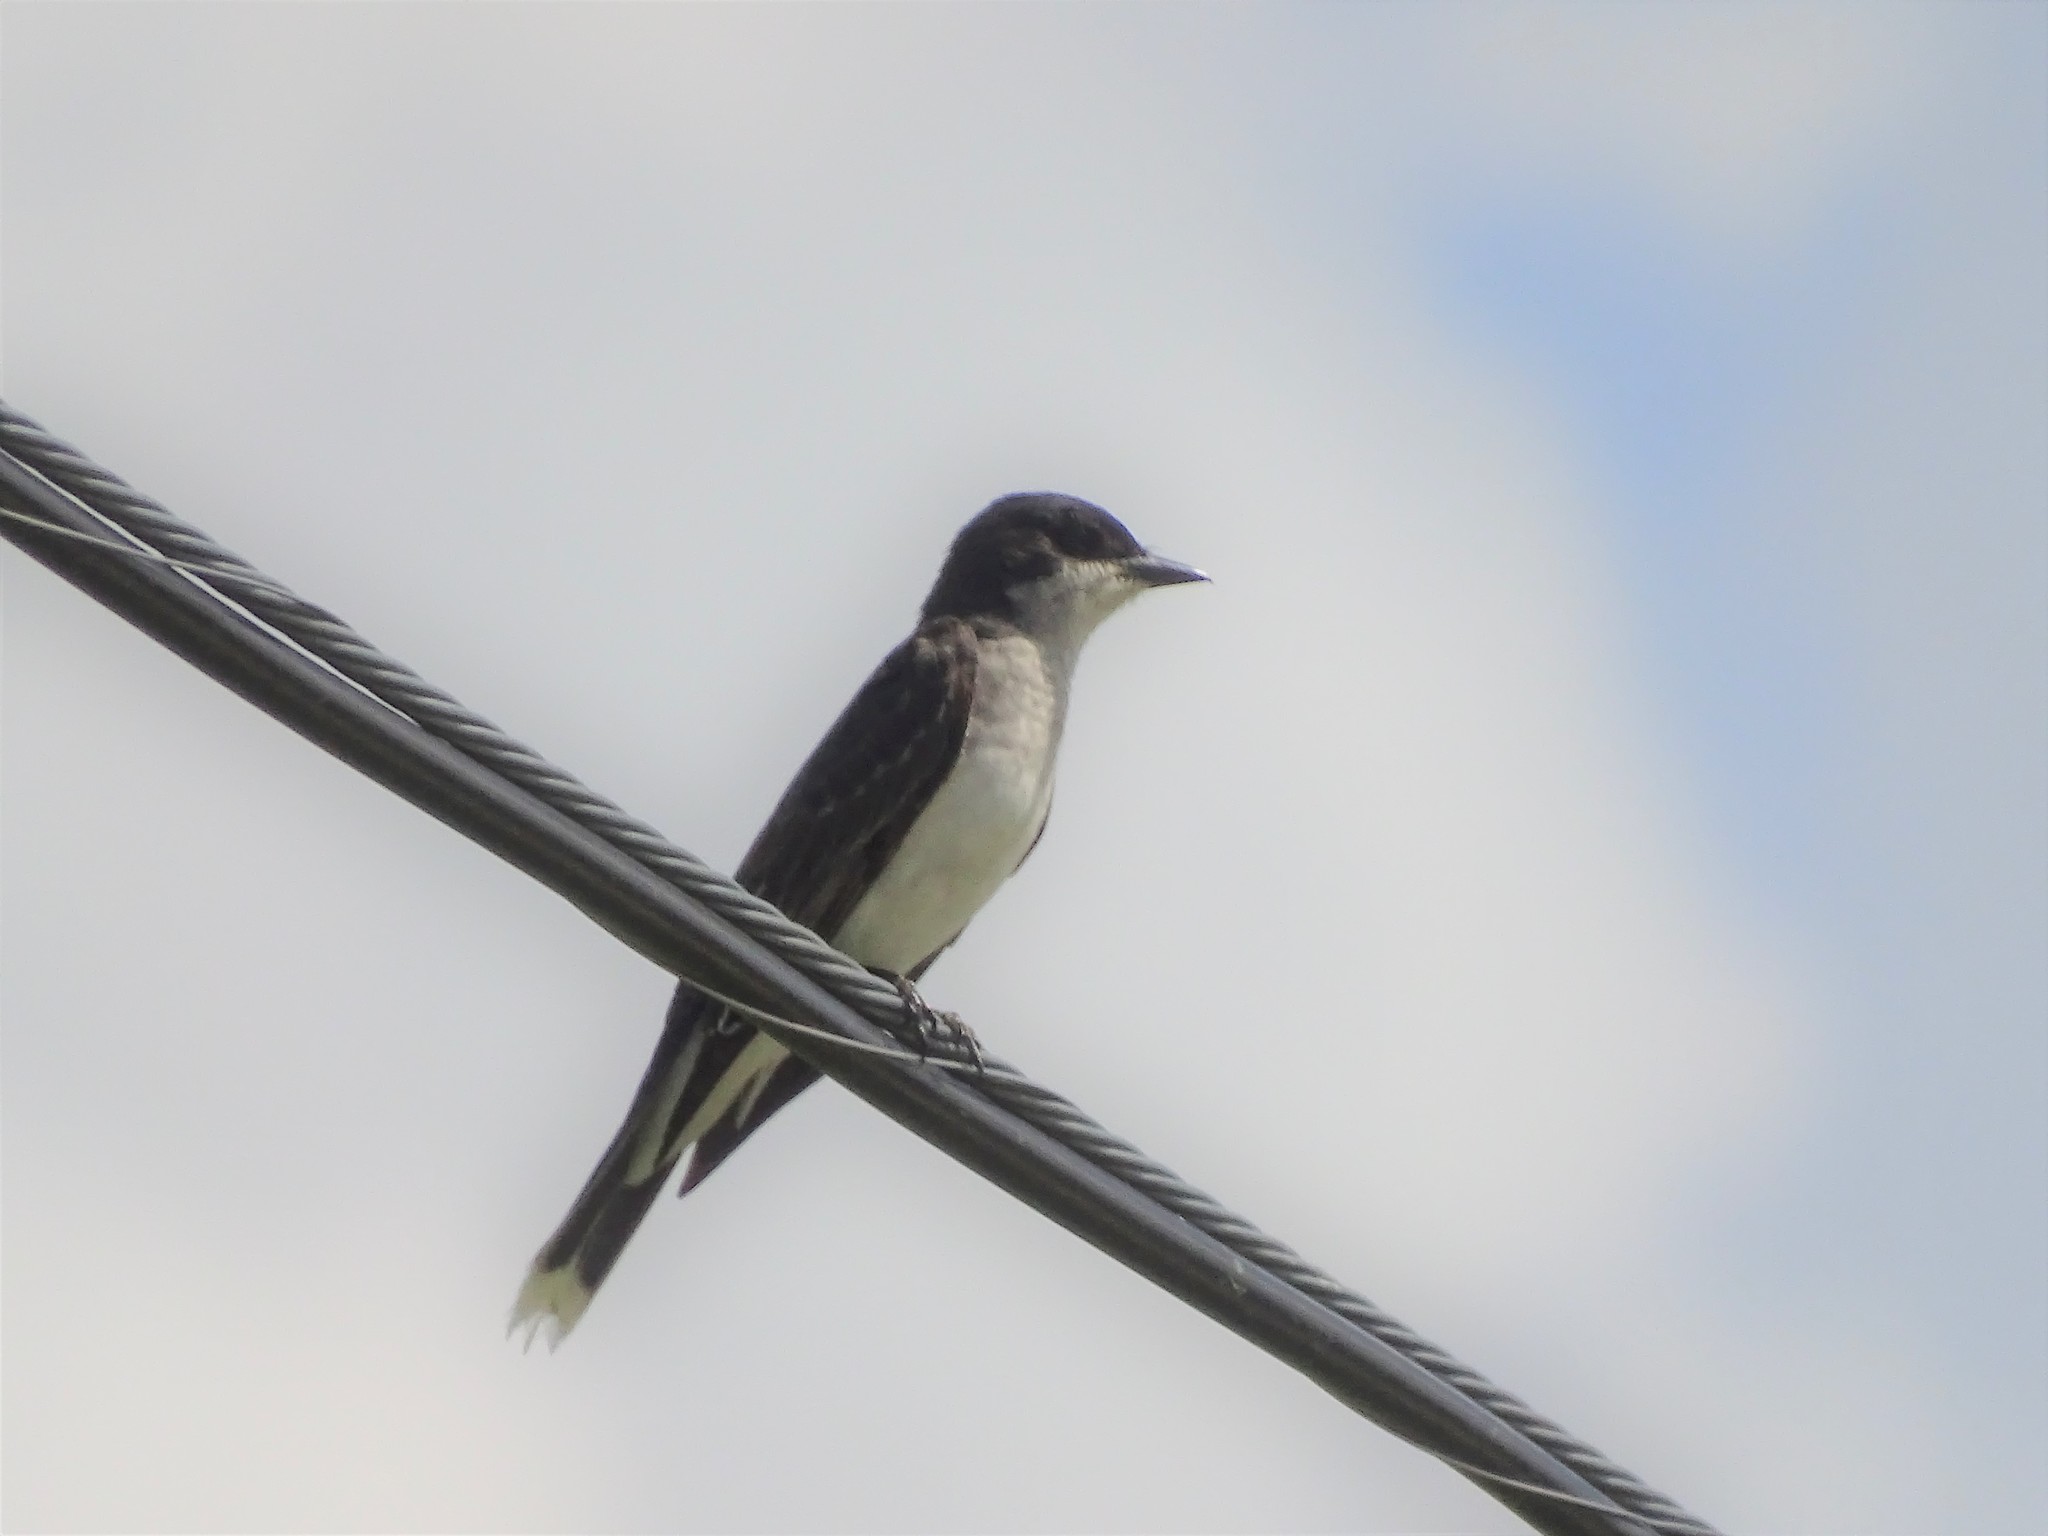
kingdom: Animalia
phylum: Chordata
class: Aves
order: Passeriformes
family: Tyrannidae
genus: Tyrannus
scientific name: Tyrannus tyrannus
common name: Eastern kingbird
